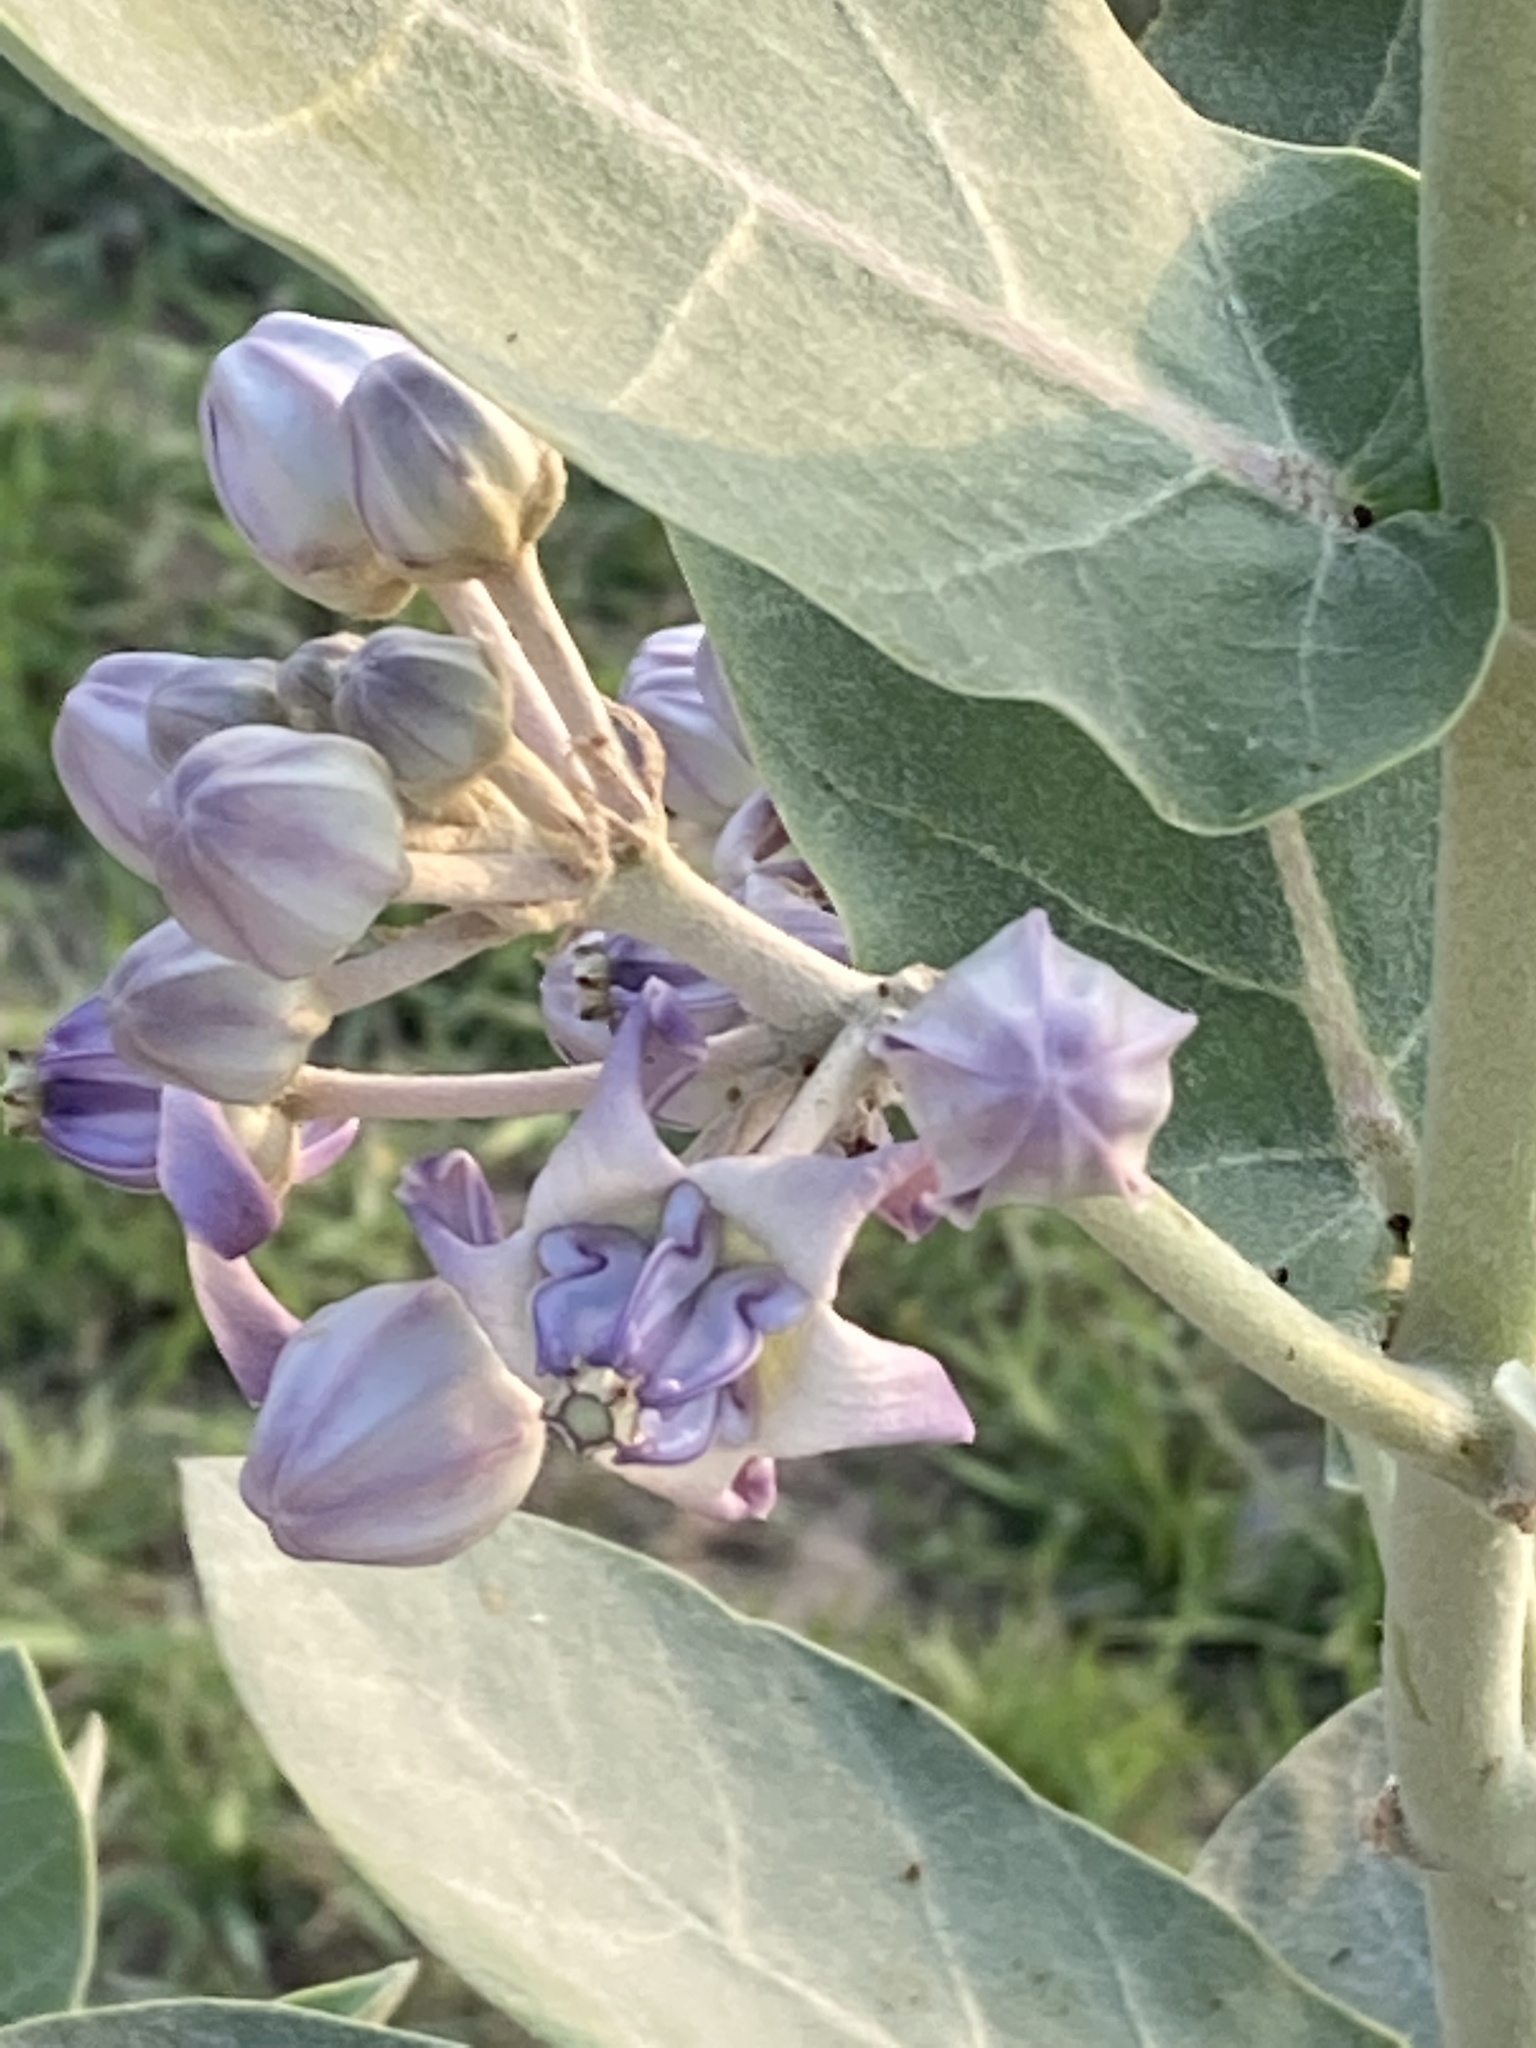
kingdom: Plantae
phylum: Tracheophyta
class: Magnoliopsida
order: Gentianales
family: Apocynaceae
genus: Calotropis
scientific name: Calotropis gigantea
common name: Crown flower
